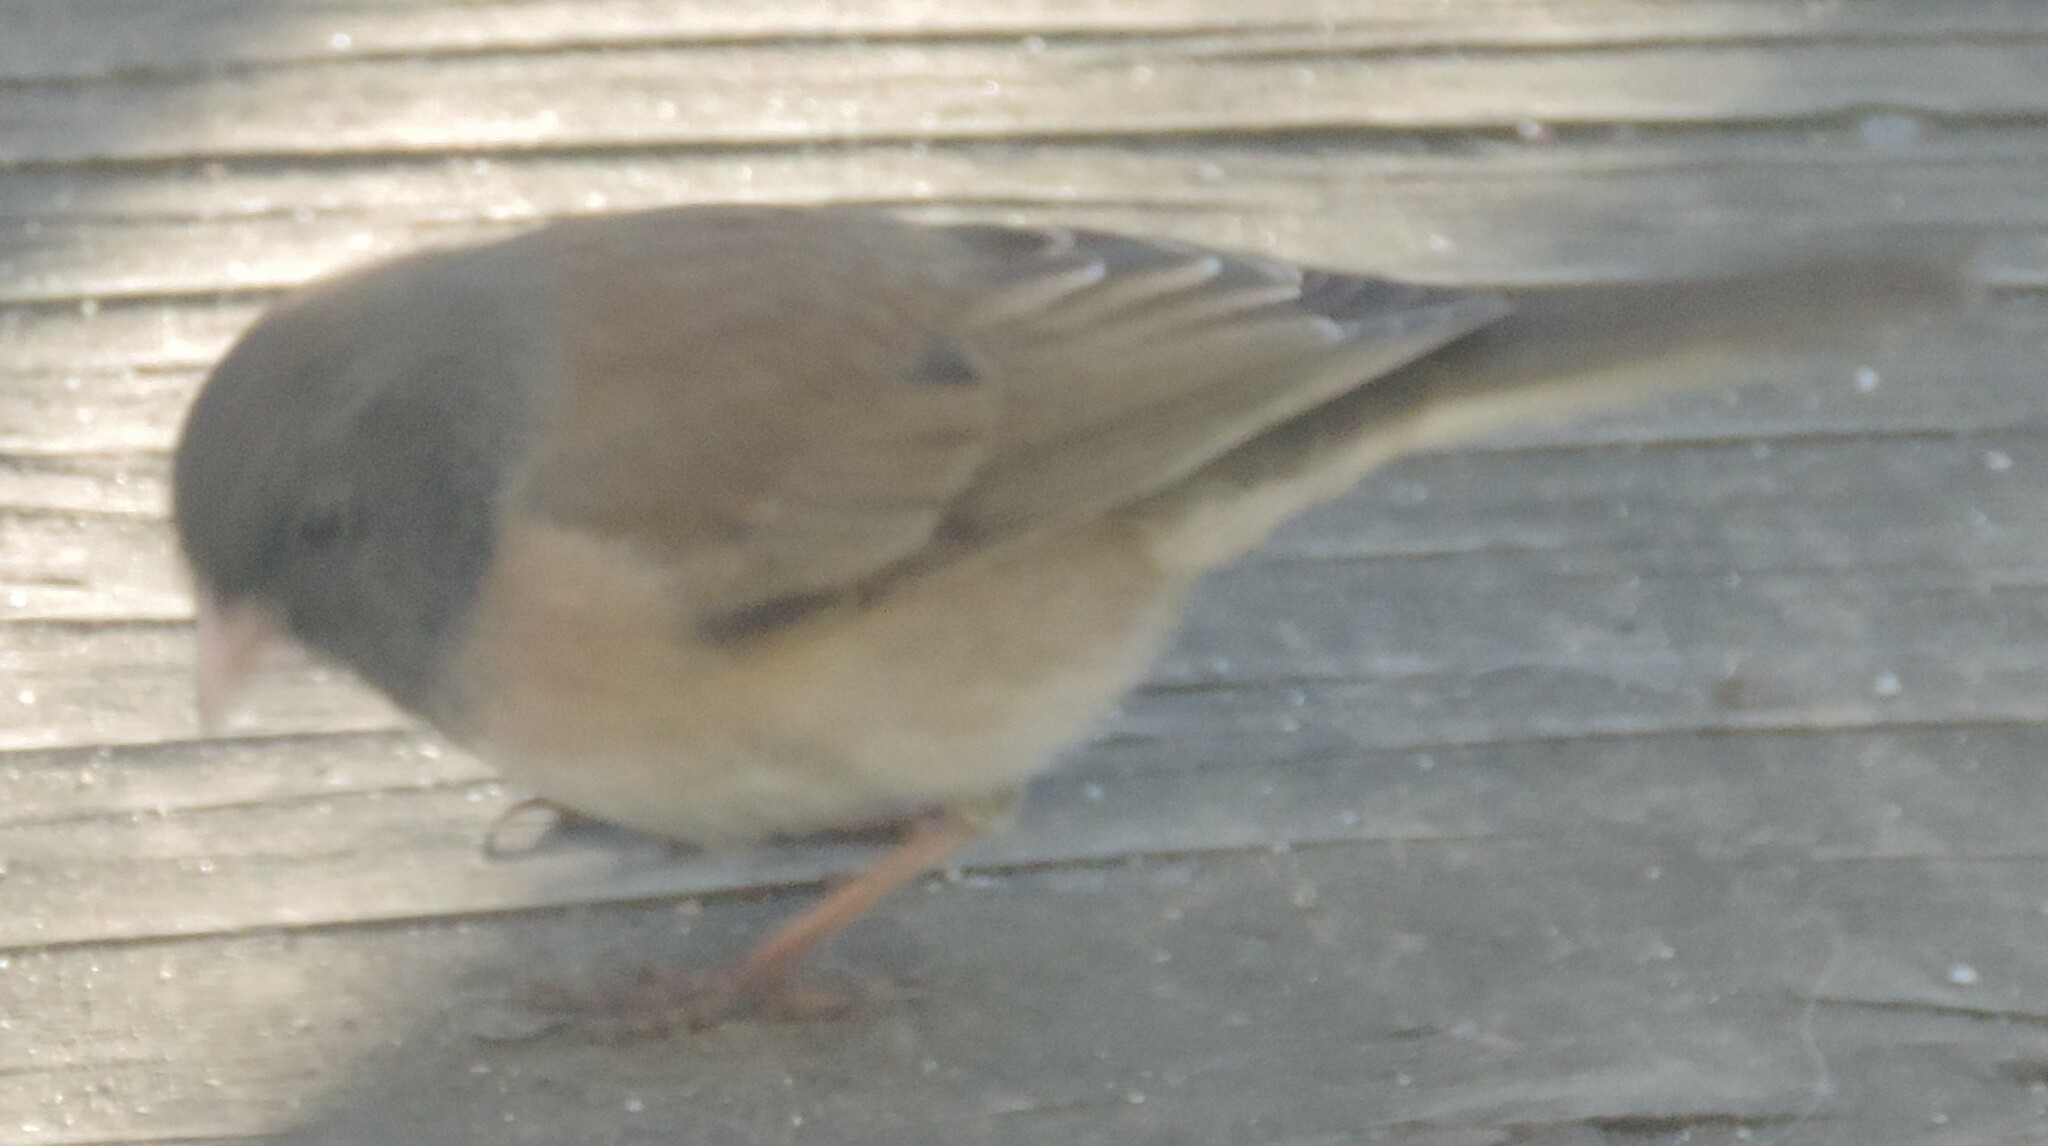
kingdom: Animalia
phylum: Chordata
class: Aves
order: Passeriformes
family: Passerellidae
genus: Junco
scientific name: Junco hyemalis
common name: Dark-eyed junco
